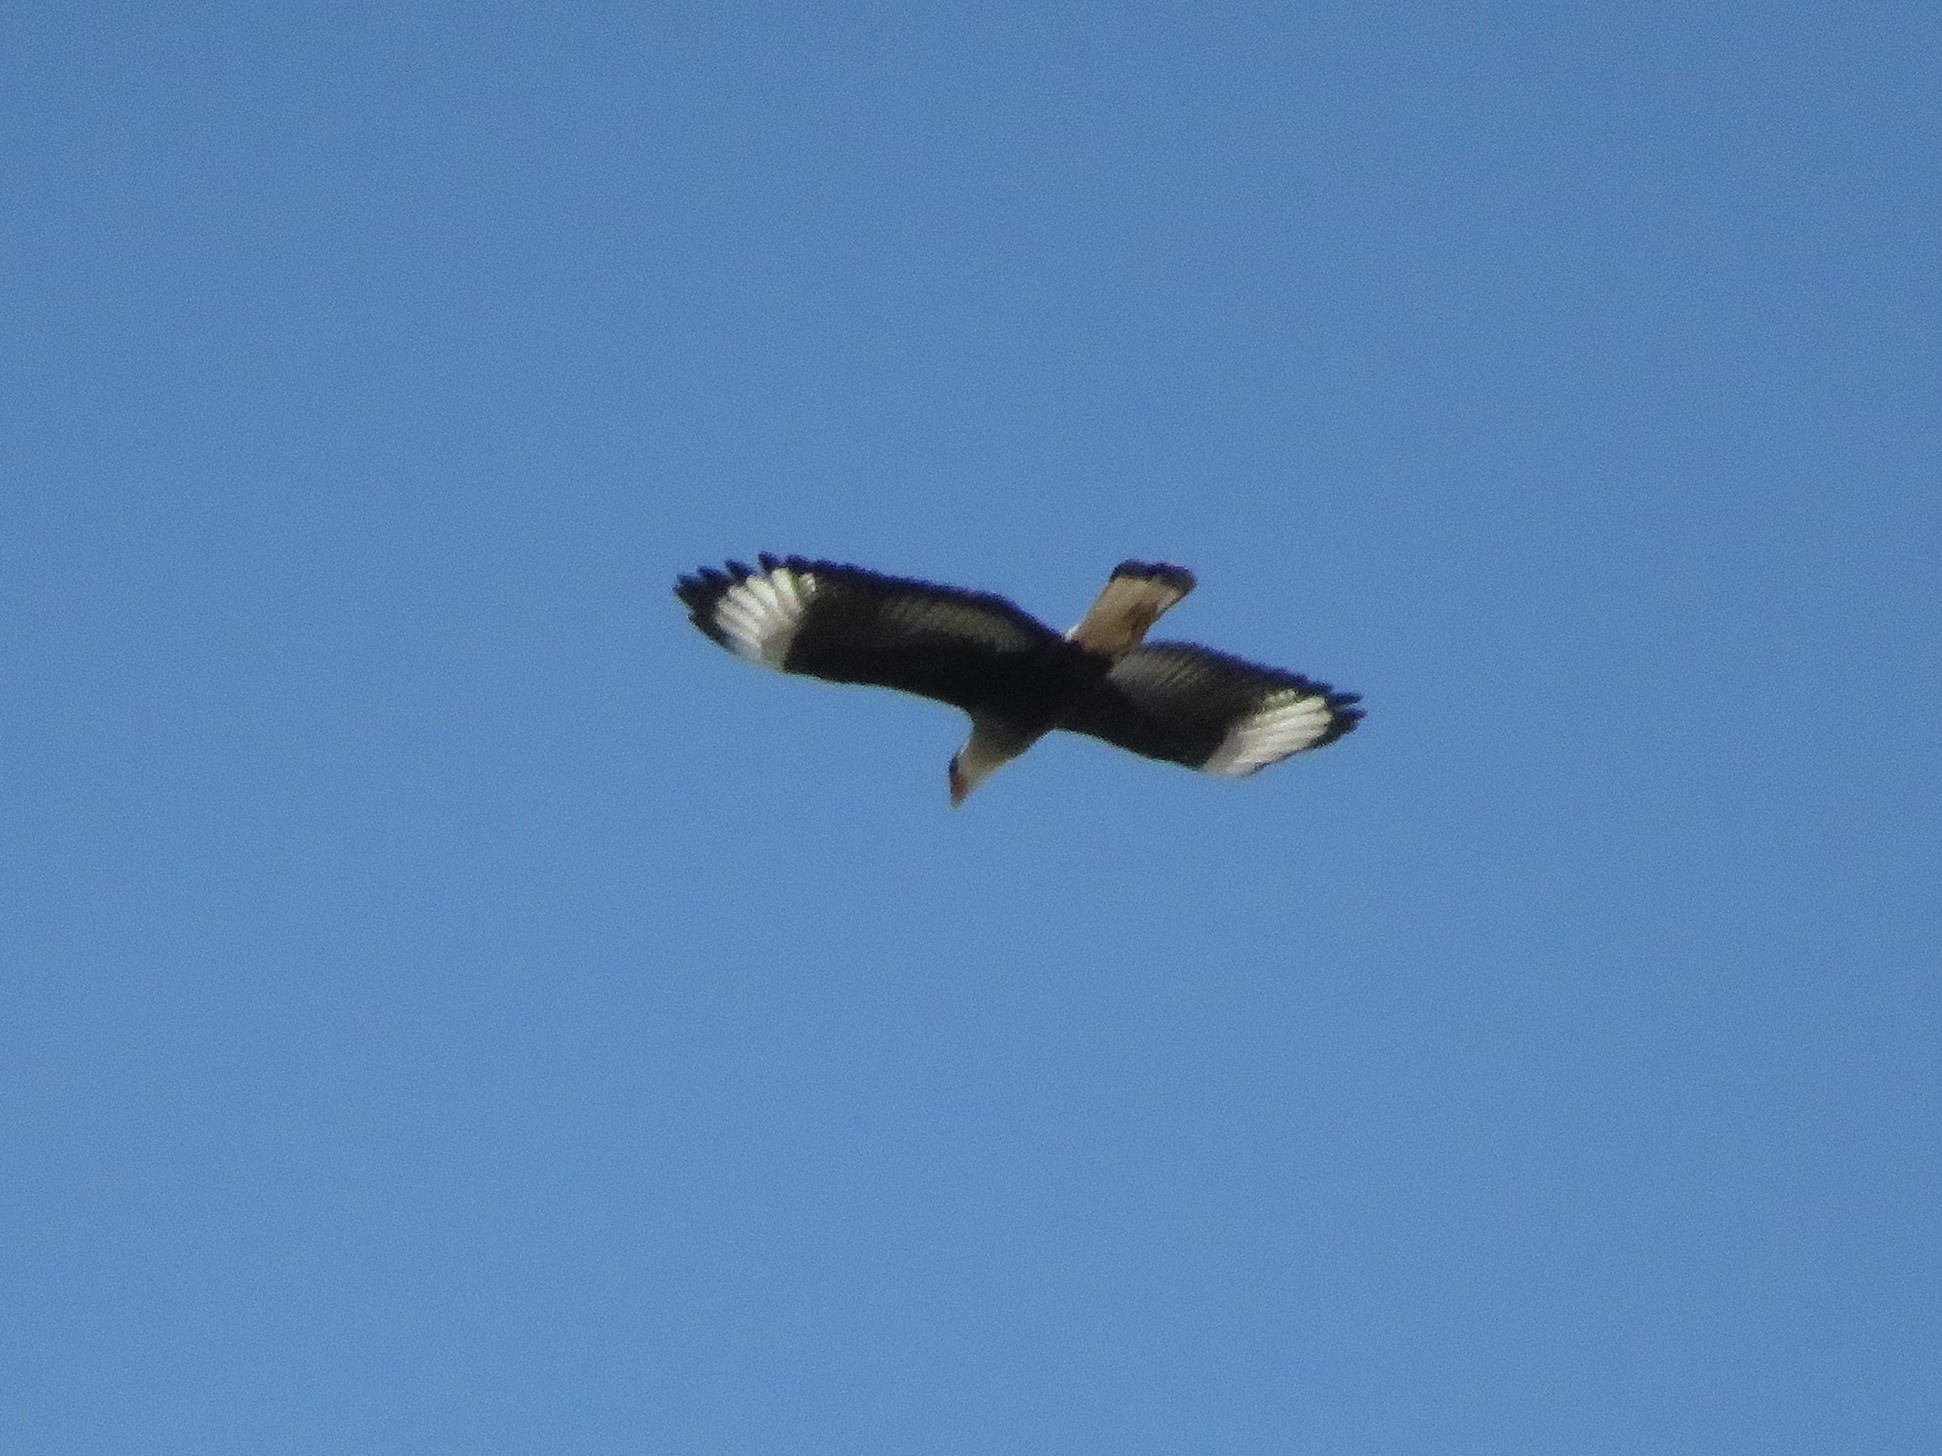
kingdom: Animalia
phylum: Chordata
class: Aves
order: Falconiformes
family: Falconidae
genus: Caracara
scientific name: Caracara plancus
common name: Southern caracara
